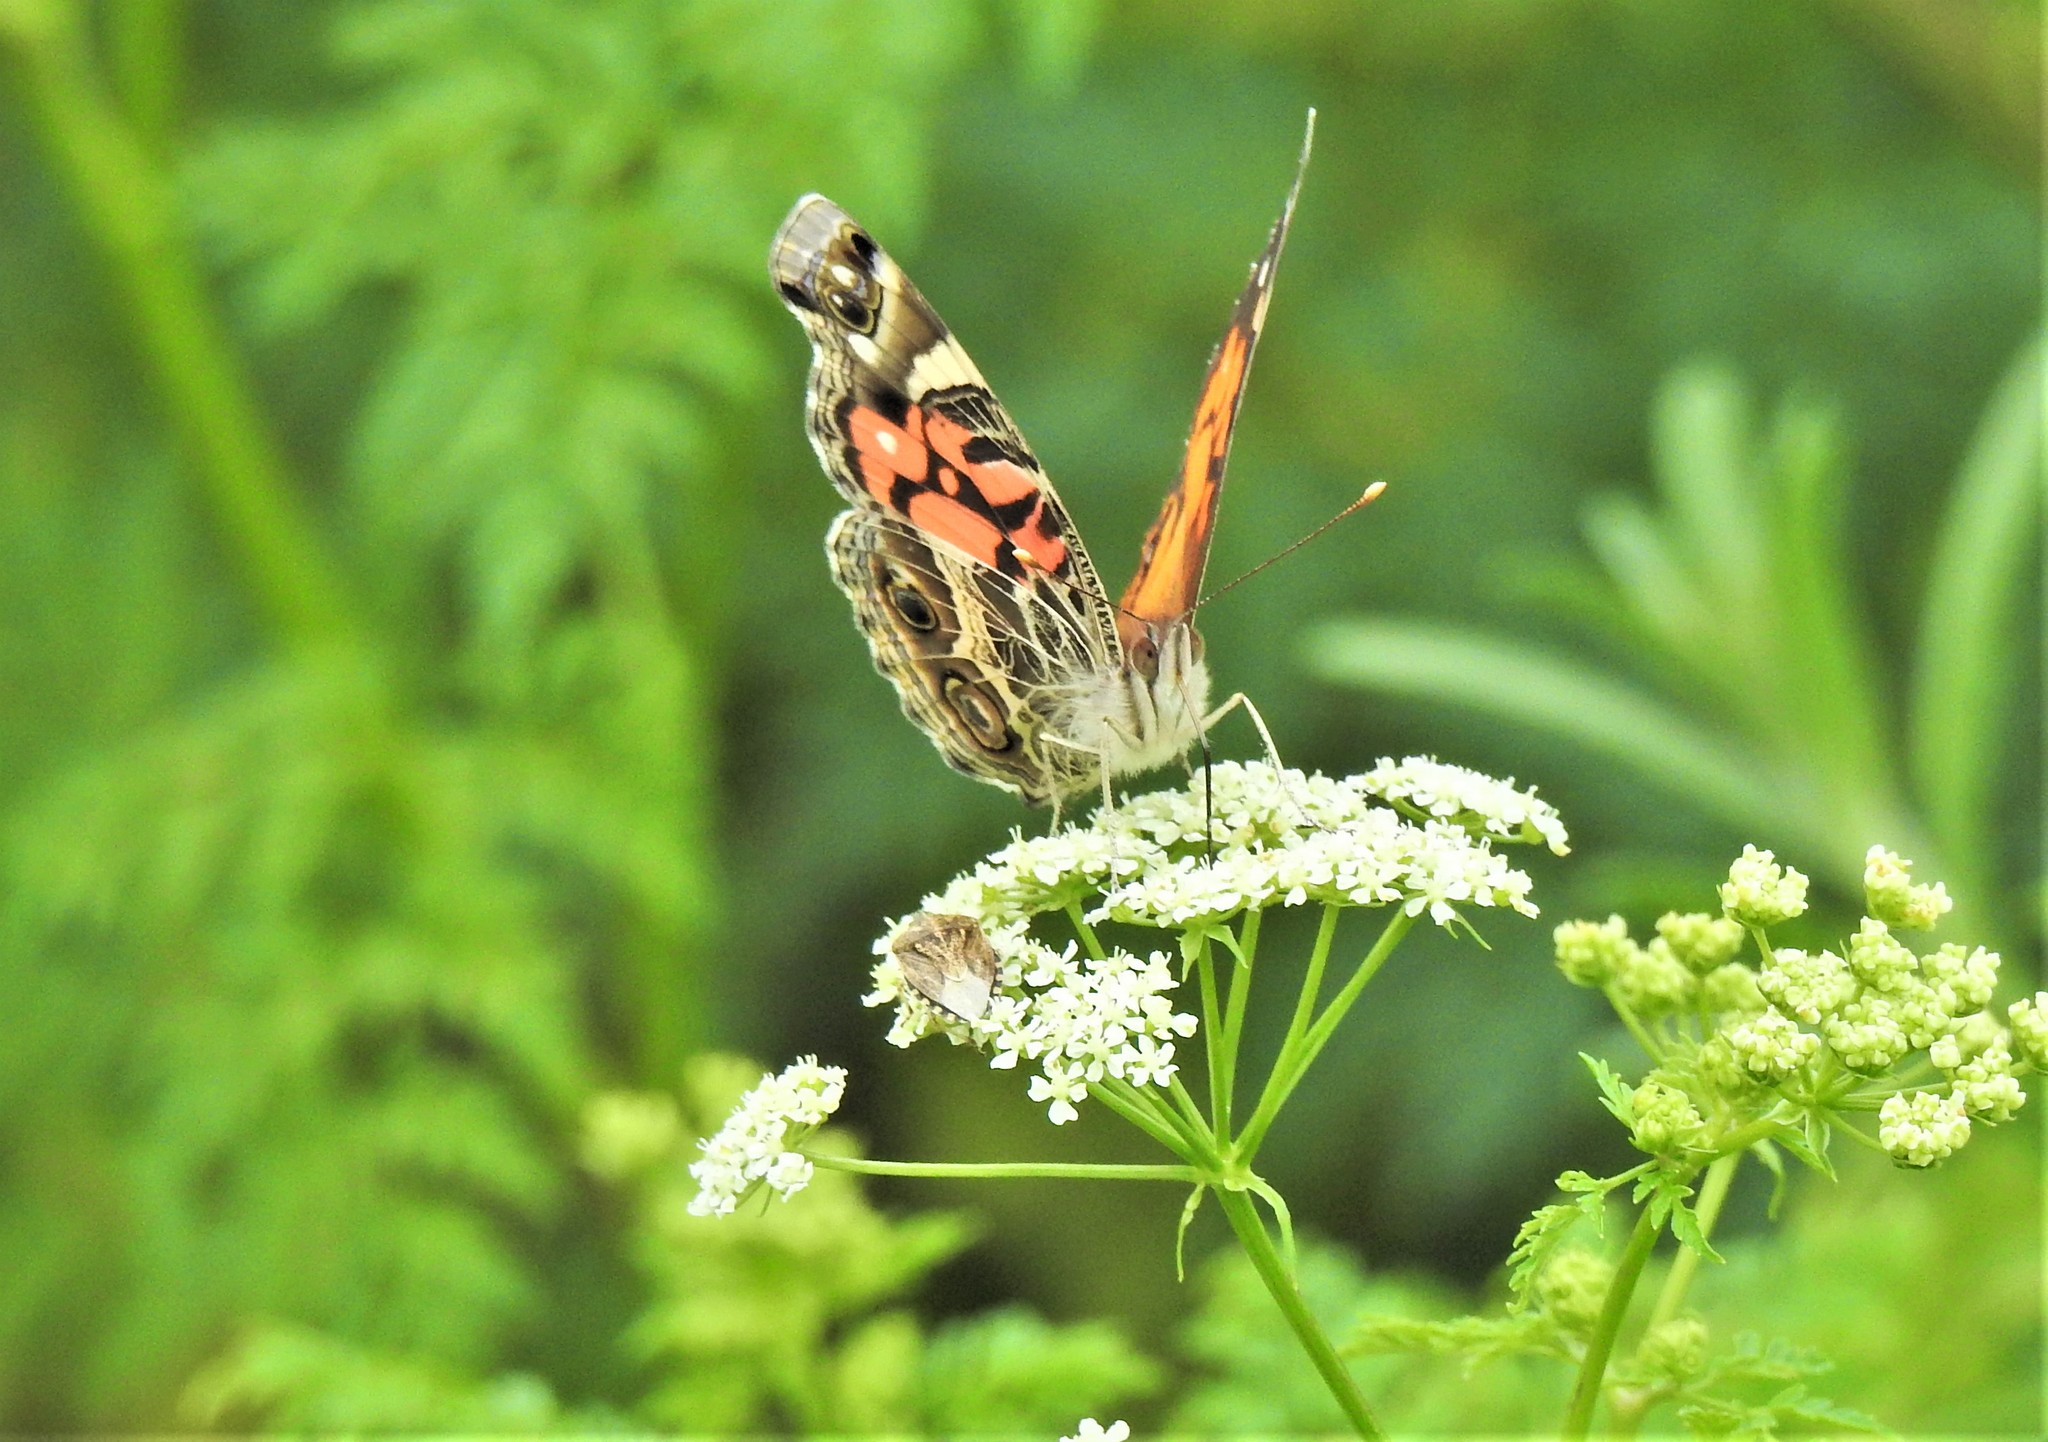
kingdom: Animalia
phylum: Arthropoda
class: Insecta
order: Lepidoptera
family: Nymphalidae
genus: Vanessa
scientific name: Vanessa virginiensis
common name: American lady
